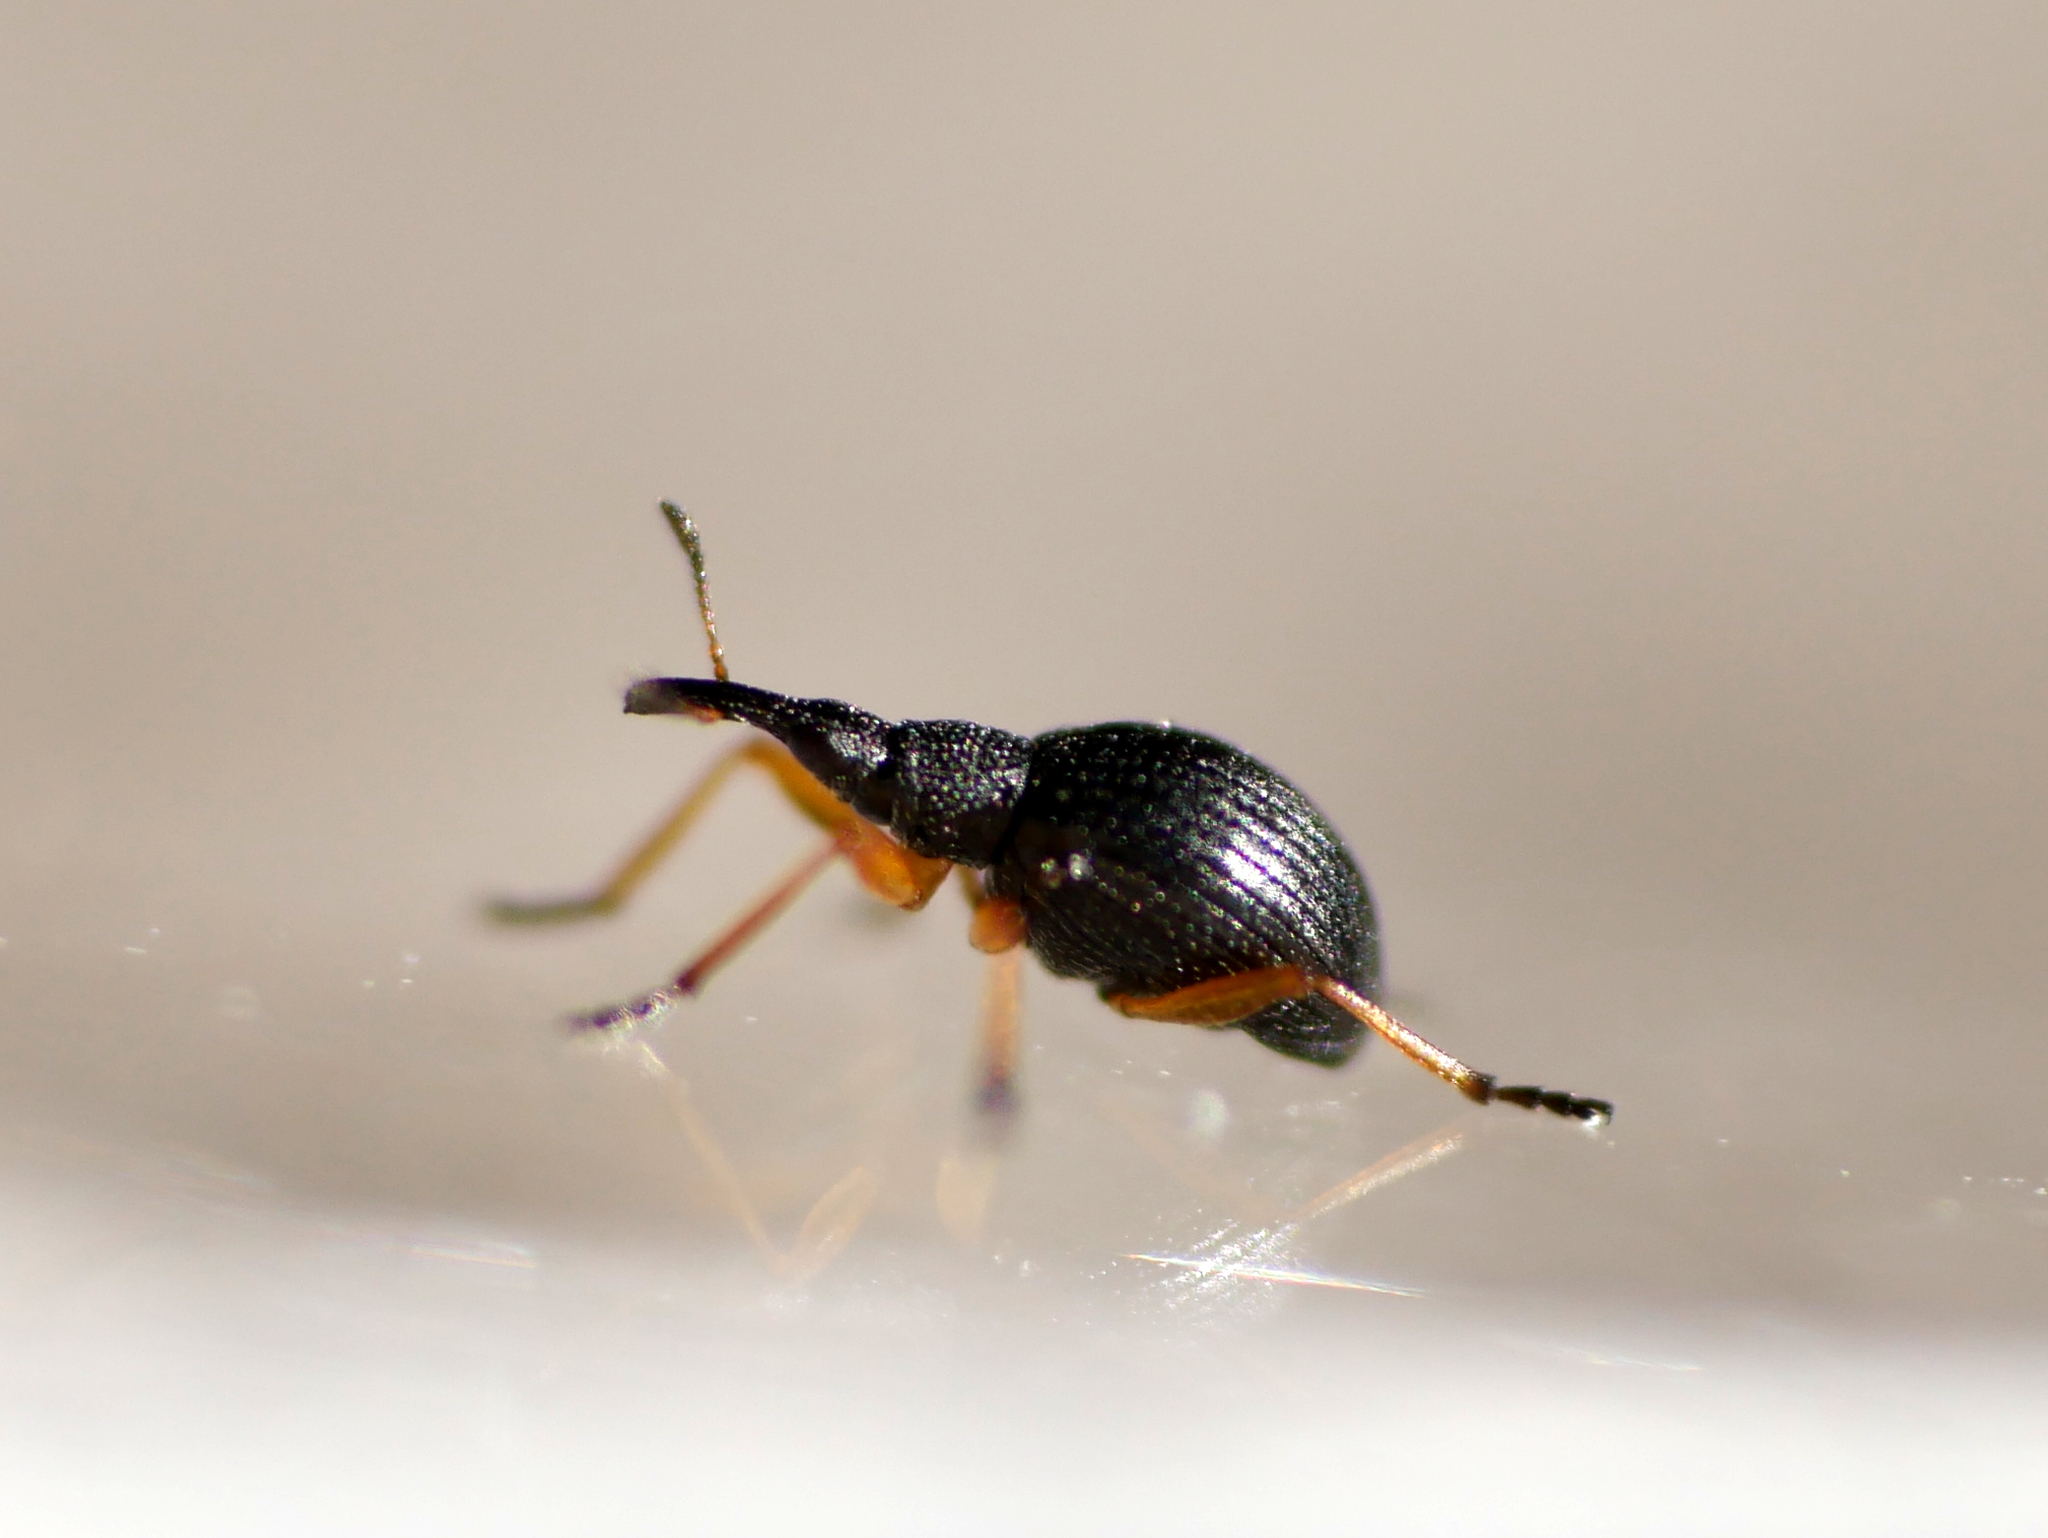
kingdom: Animalia
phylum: Arthropoda
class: Insecta
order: Coleoptera
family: Apionidae
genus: Protapion
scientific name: Protapion fulvipes
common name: White clover seed weevil
